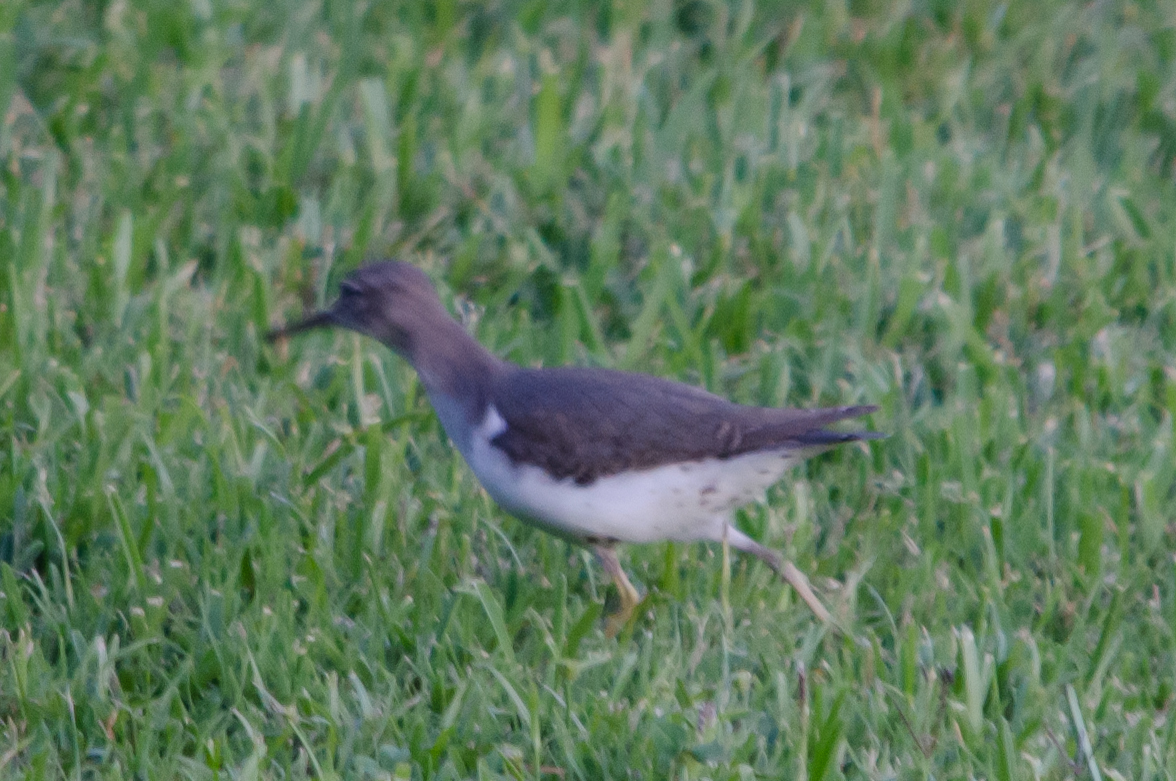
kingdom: Animalia
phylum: Chordata
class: Aves
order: Charadriiformes
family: Scolopacidae
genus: Actitis
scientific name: Actitis macularius
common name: Spotted sandpiper
